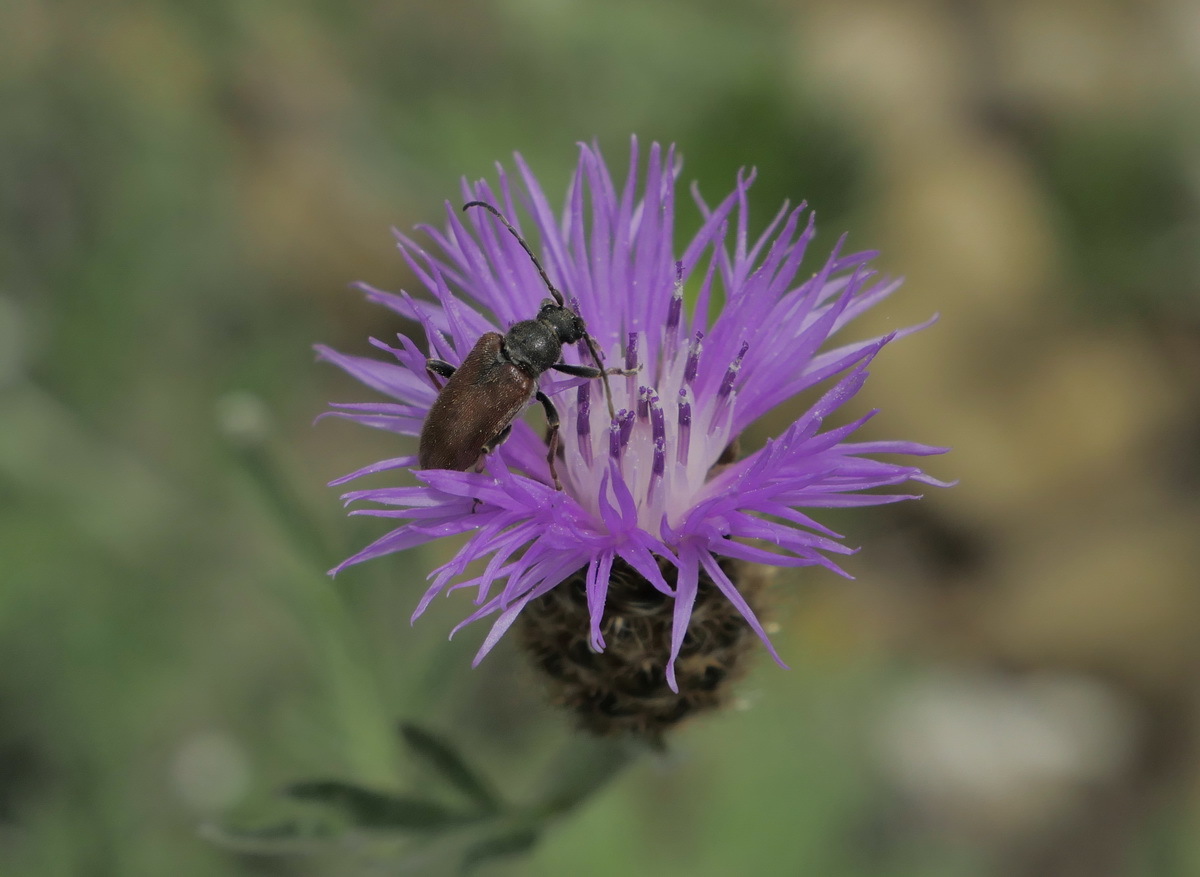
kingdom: Animalia
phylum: Arthropoda
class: Insecta
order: Coleoptera
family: Cerambycidae
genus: Cortodera
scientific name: Cortodera goriensis
